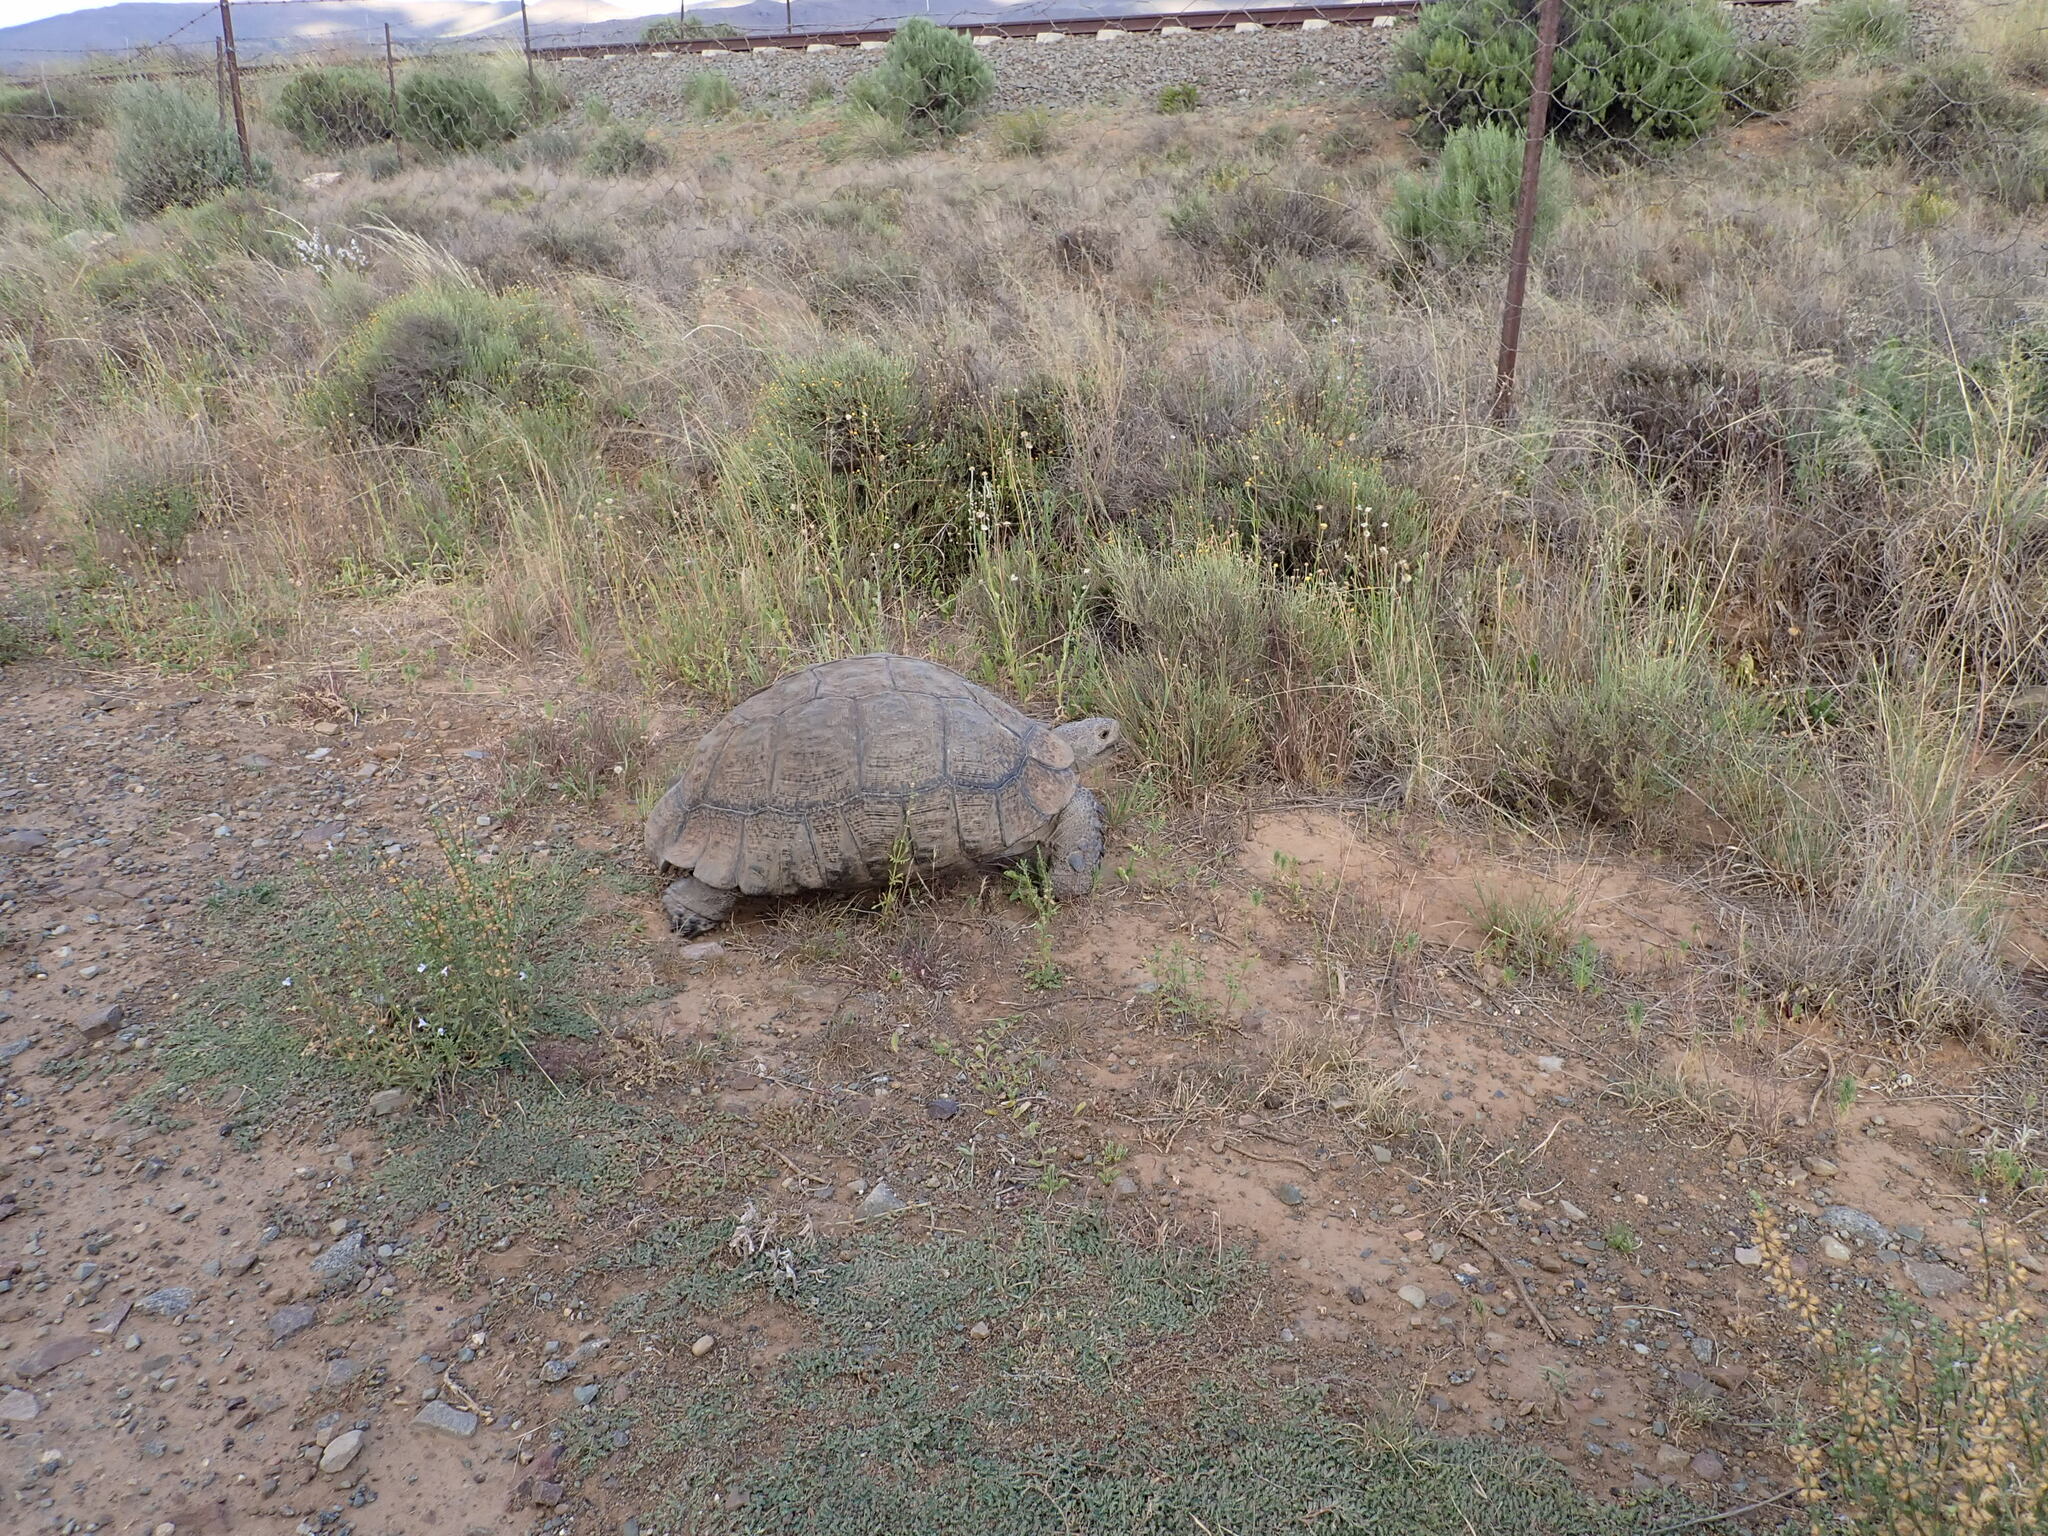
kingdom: Animalia
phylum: Chordata
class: Testudines
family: Testudinidae
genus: Stigmochelys
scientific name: Stigmochelys pardalis
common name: Leopard tortoise
